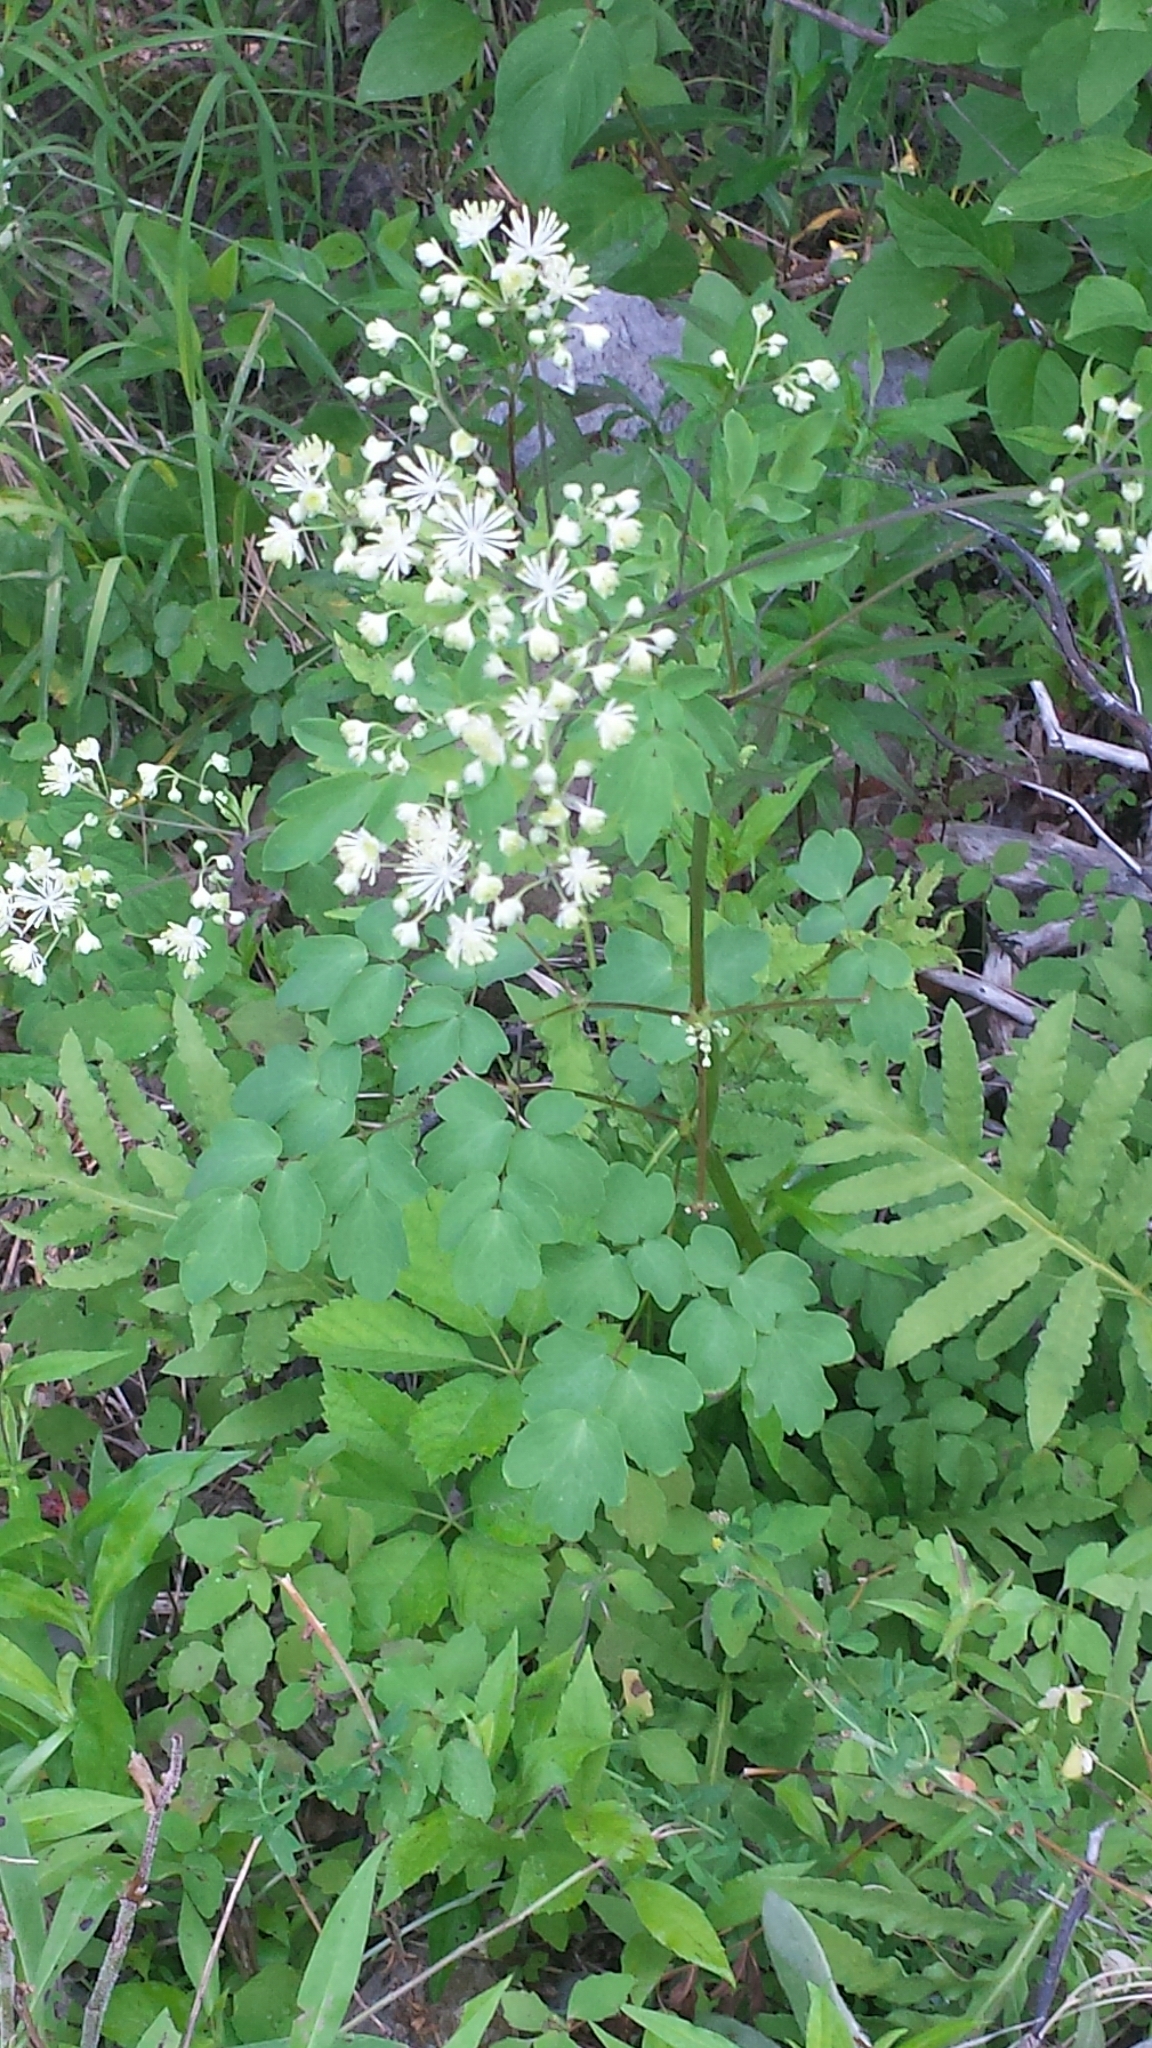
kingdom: Plantae
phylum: Tracheophyta
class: Magnoliopsida
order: Ranunculales
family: Ranunculaceae
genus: Thalictrum
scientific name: Thalictrum pubescens
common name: King-of-the-meadow
